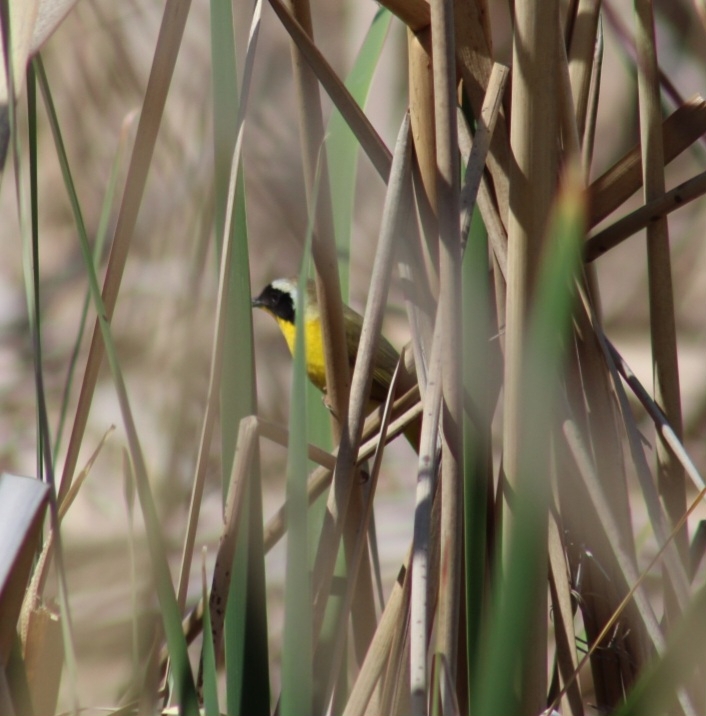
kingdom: Animalia
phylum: Chordata
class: Aves
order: Passeriformes
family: Parulidae
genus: Geothlypis
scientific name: Geothlypis trichas
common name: Common yellowthroat
